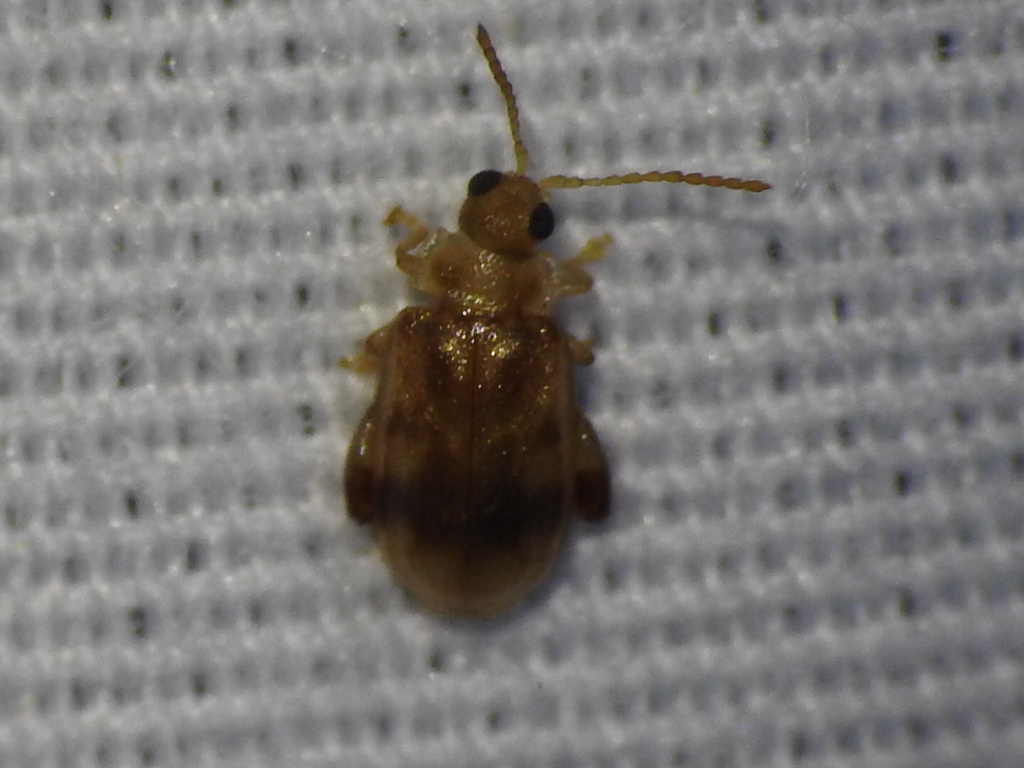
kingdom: Animalia
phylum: Arthropoda
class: Insecta
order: Coleoptera
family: Chrysomelidae
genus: Capraita
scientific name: Capraita sexmaculata
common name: Charlie brown flea beetle
